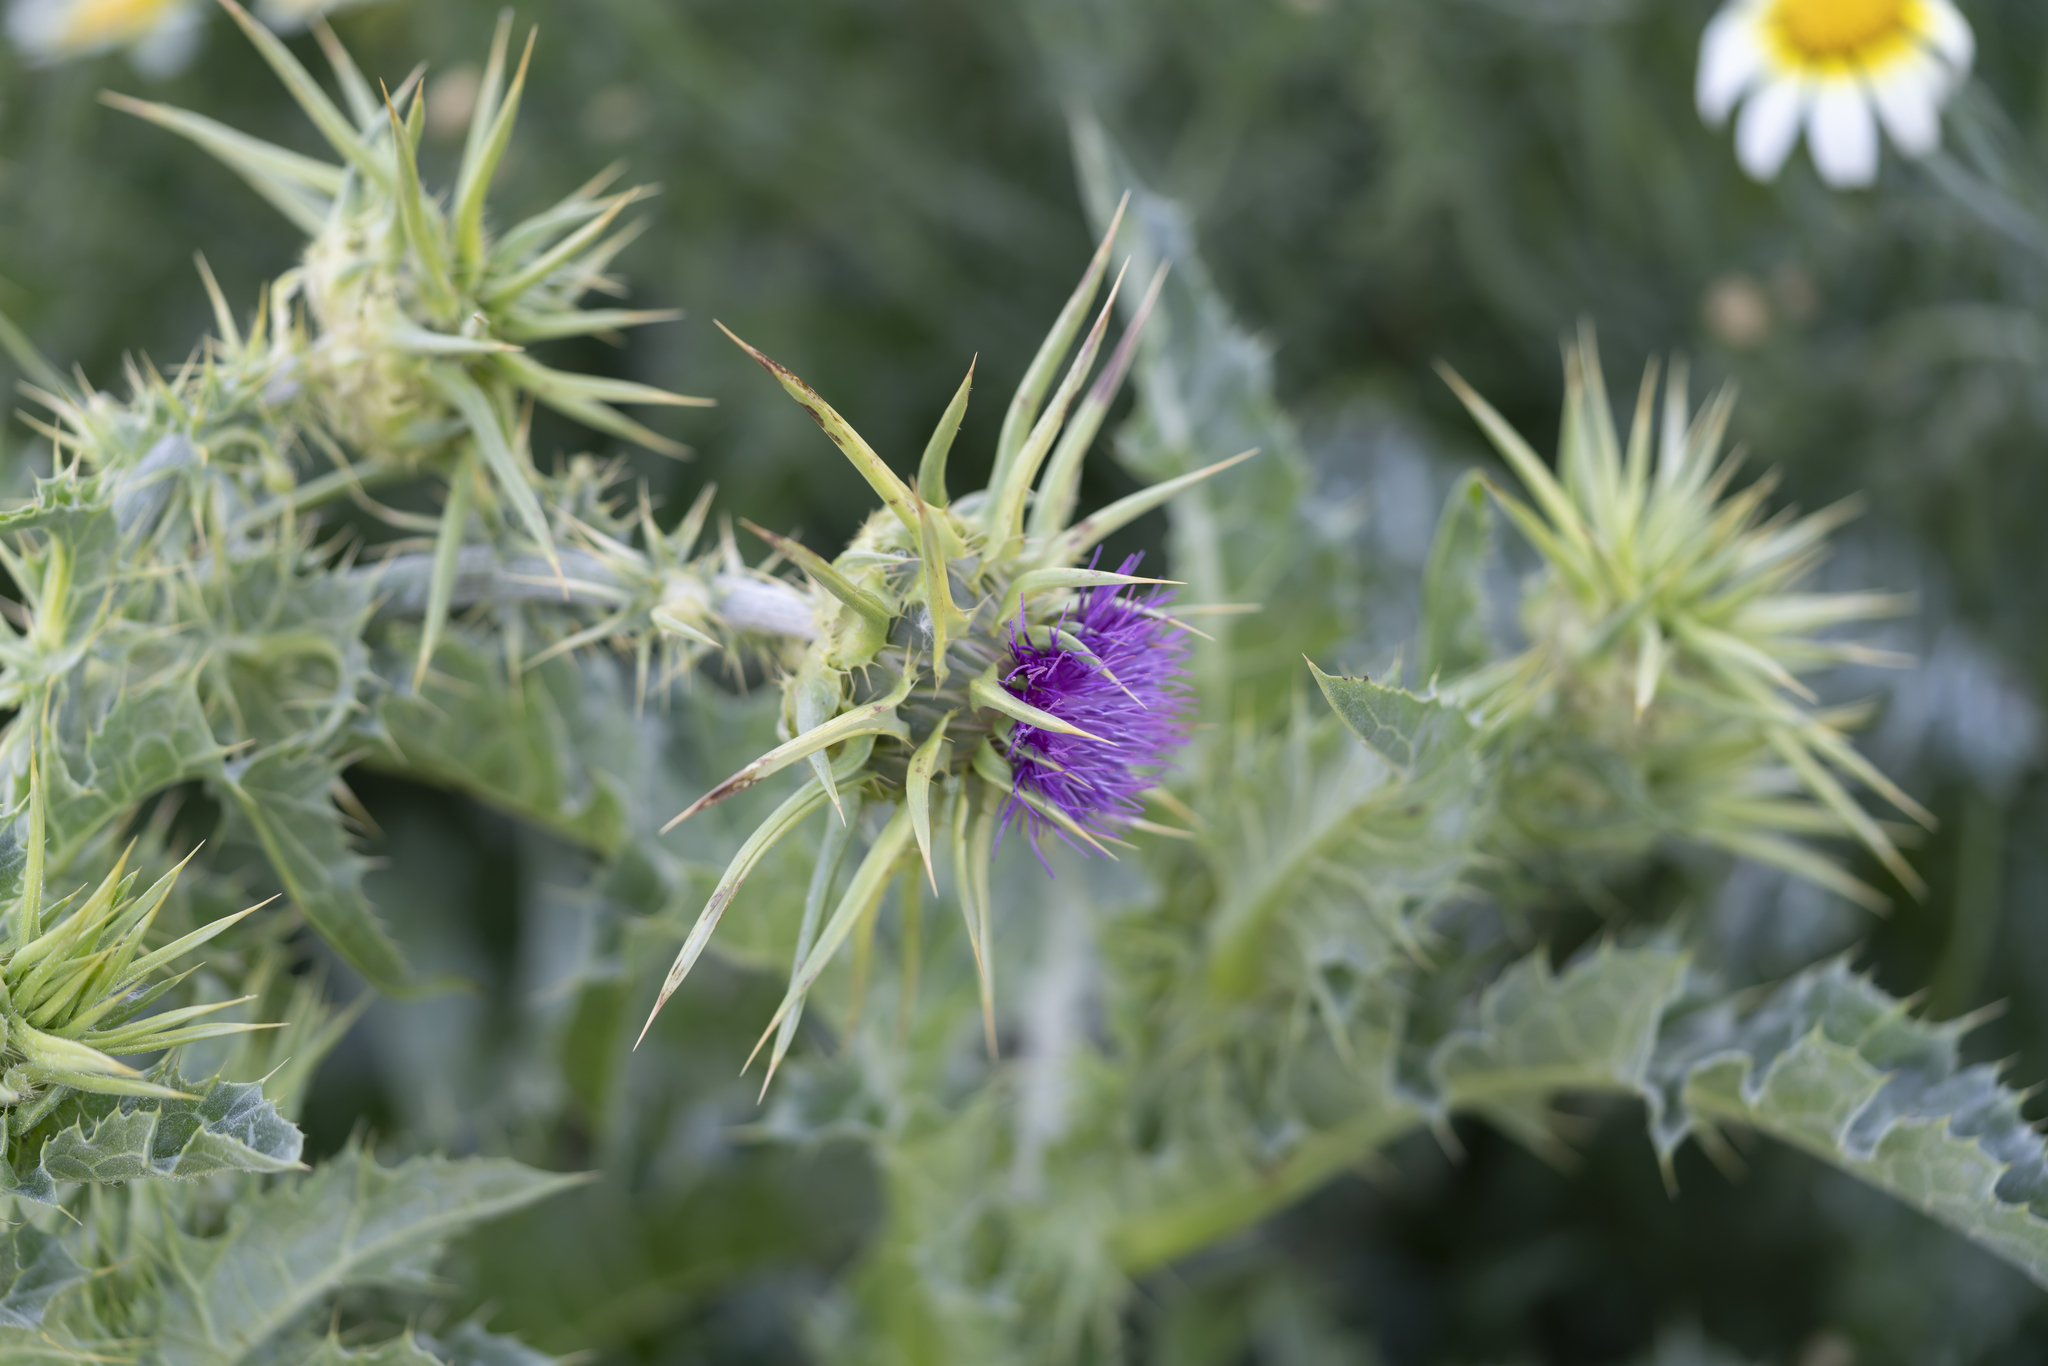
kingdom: Plantae
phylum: Tracheophyta
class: Magnoliopsida
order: Asterales
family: Asteraceae
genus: Silybum
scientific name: Silybum marianum
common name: Milk thistle
